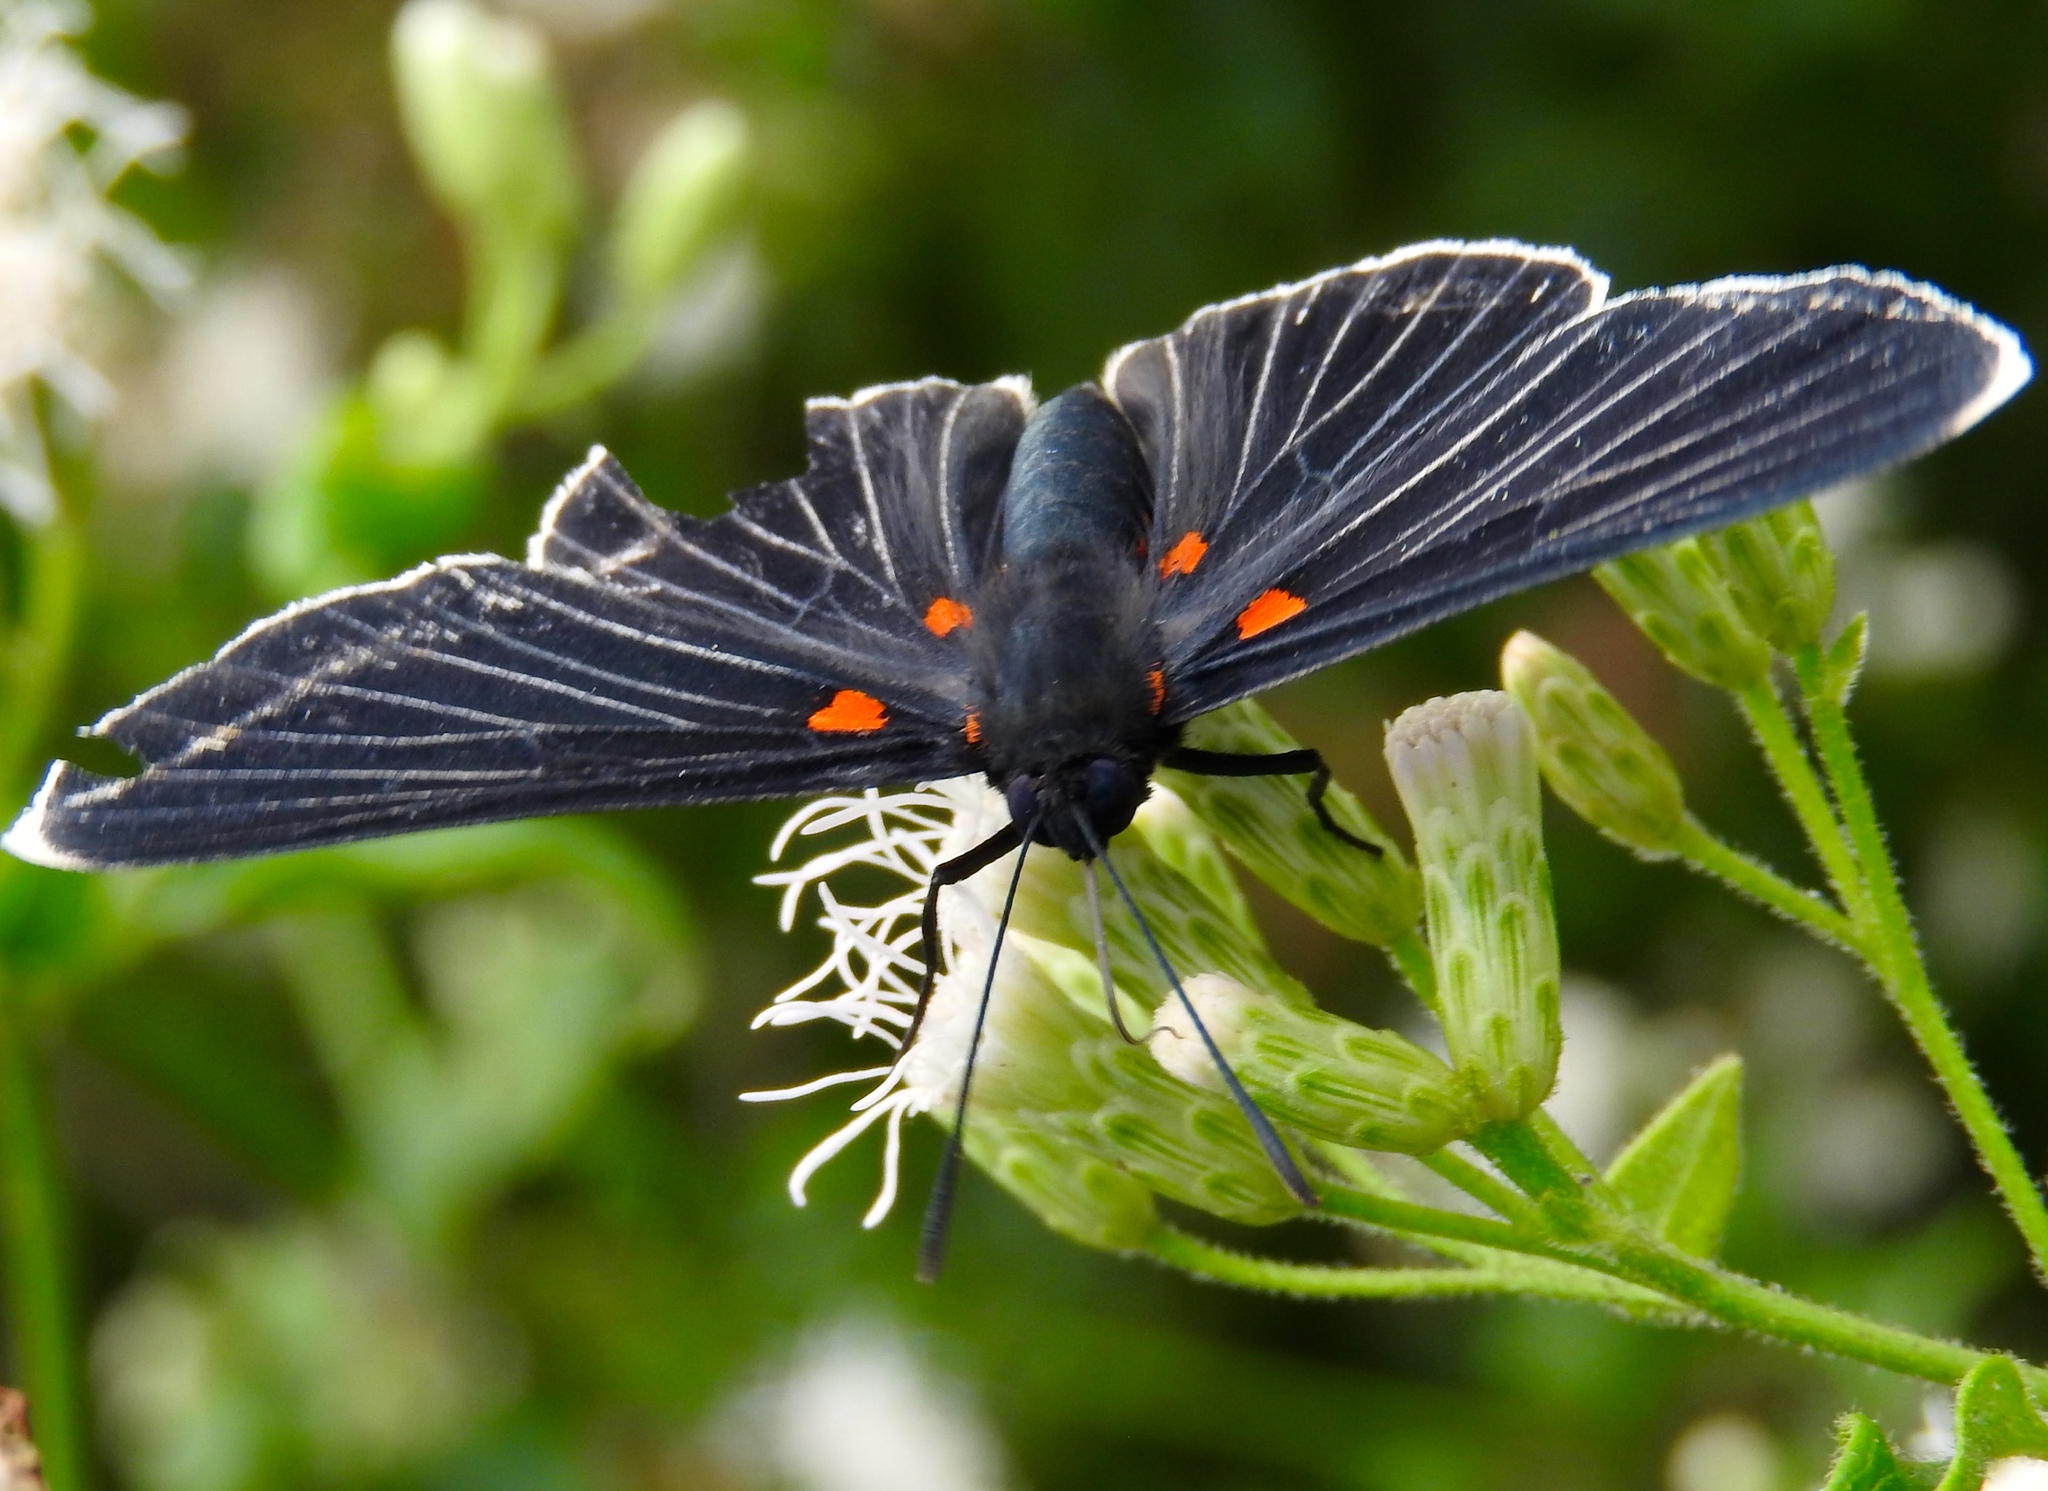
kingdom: Animalia
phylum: Arthropoda
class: Insecta
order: Lepidoptera
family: Lycaenidae
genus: Melanis
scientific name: Melanis
